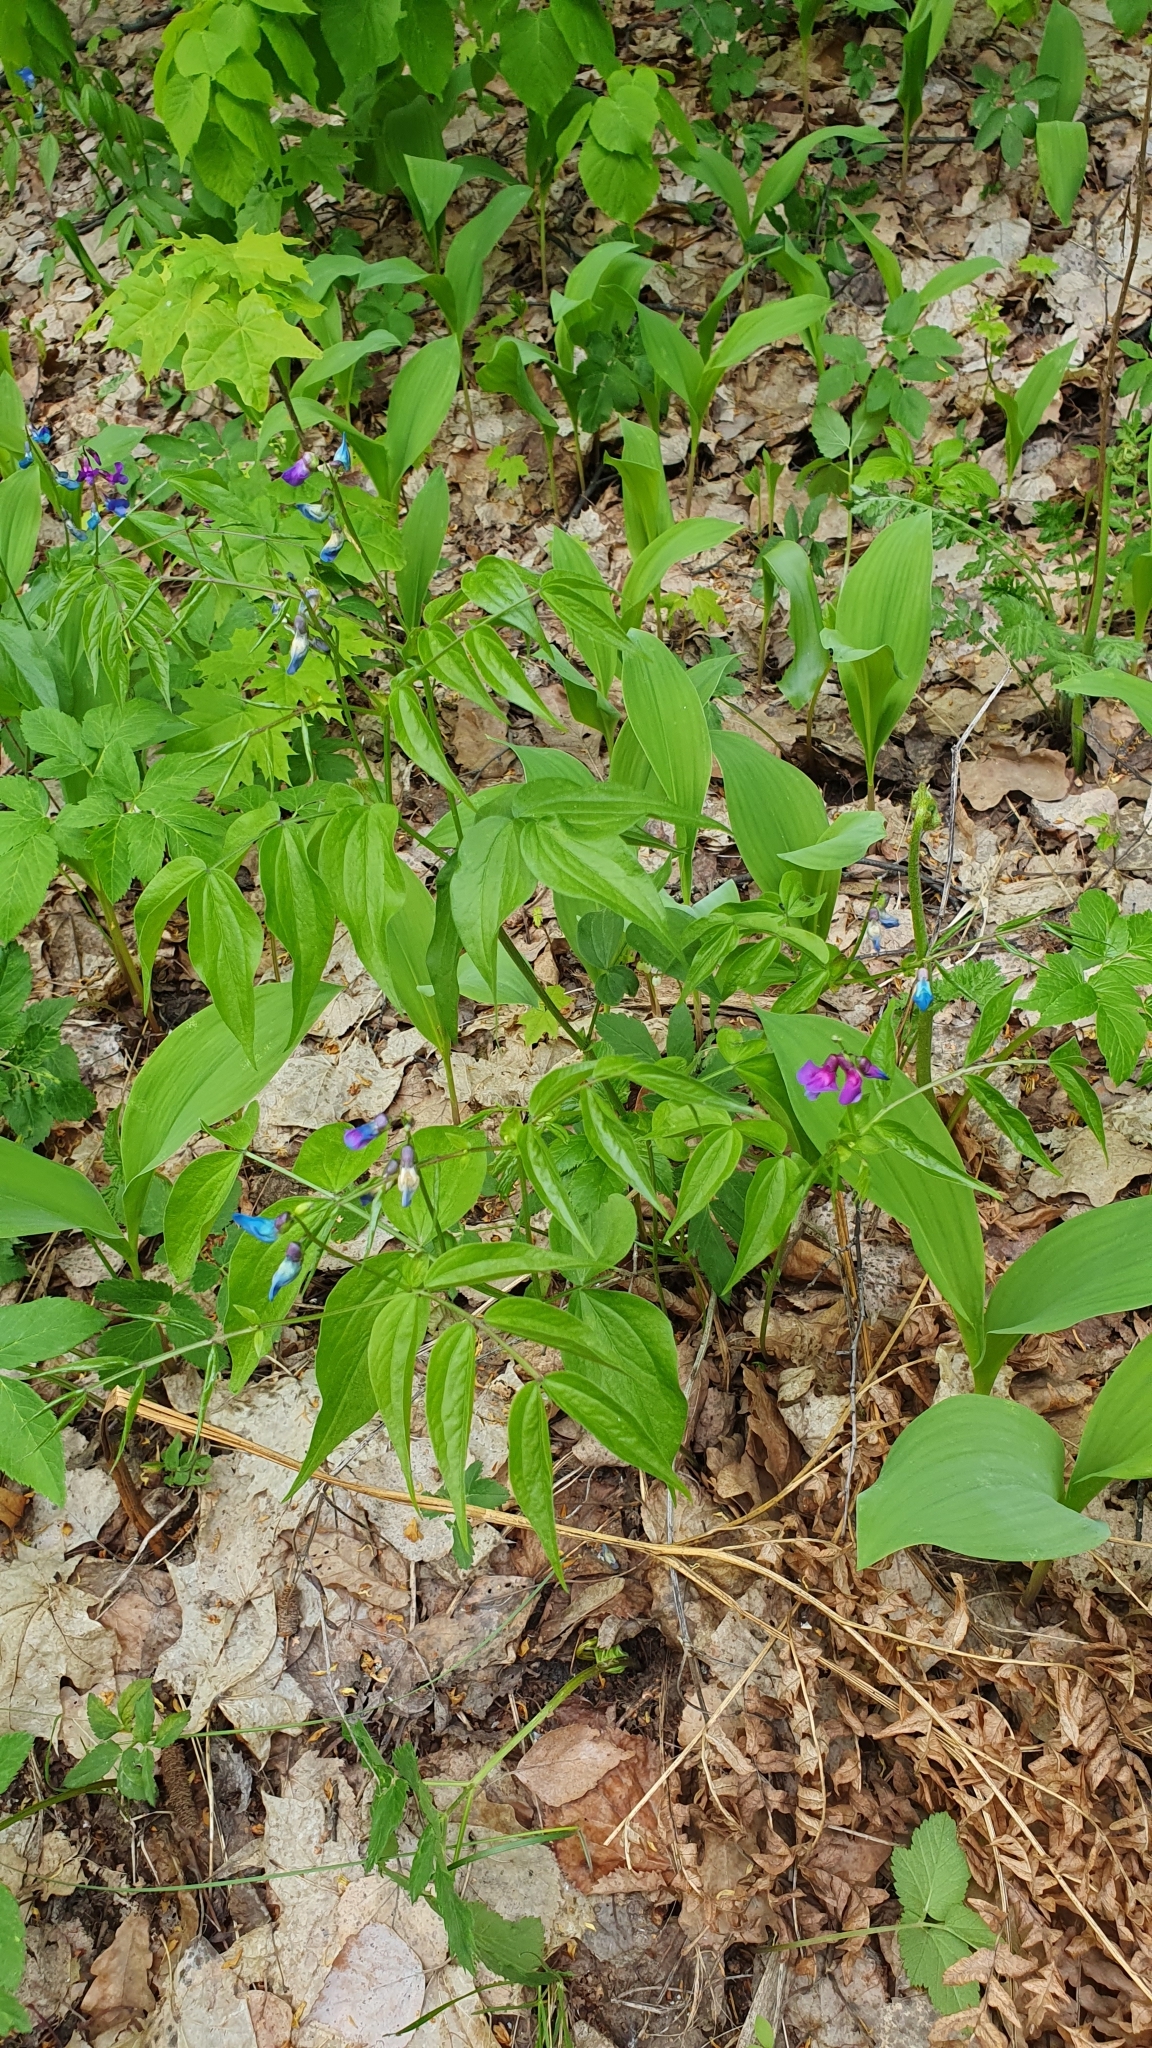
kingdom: Plantae
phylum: Tracheophyta
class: Magnoliopsida
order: Fabales
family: Fabaceae
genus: Lathyrus
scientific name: Lathyrus vernus
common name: Spring pea
